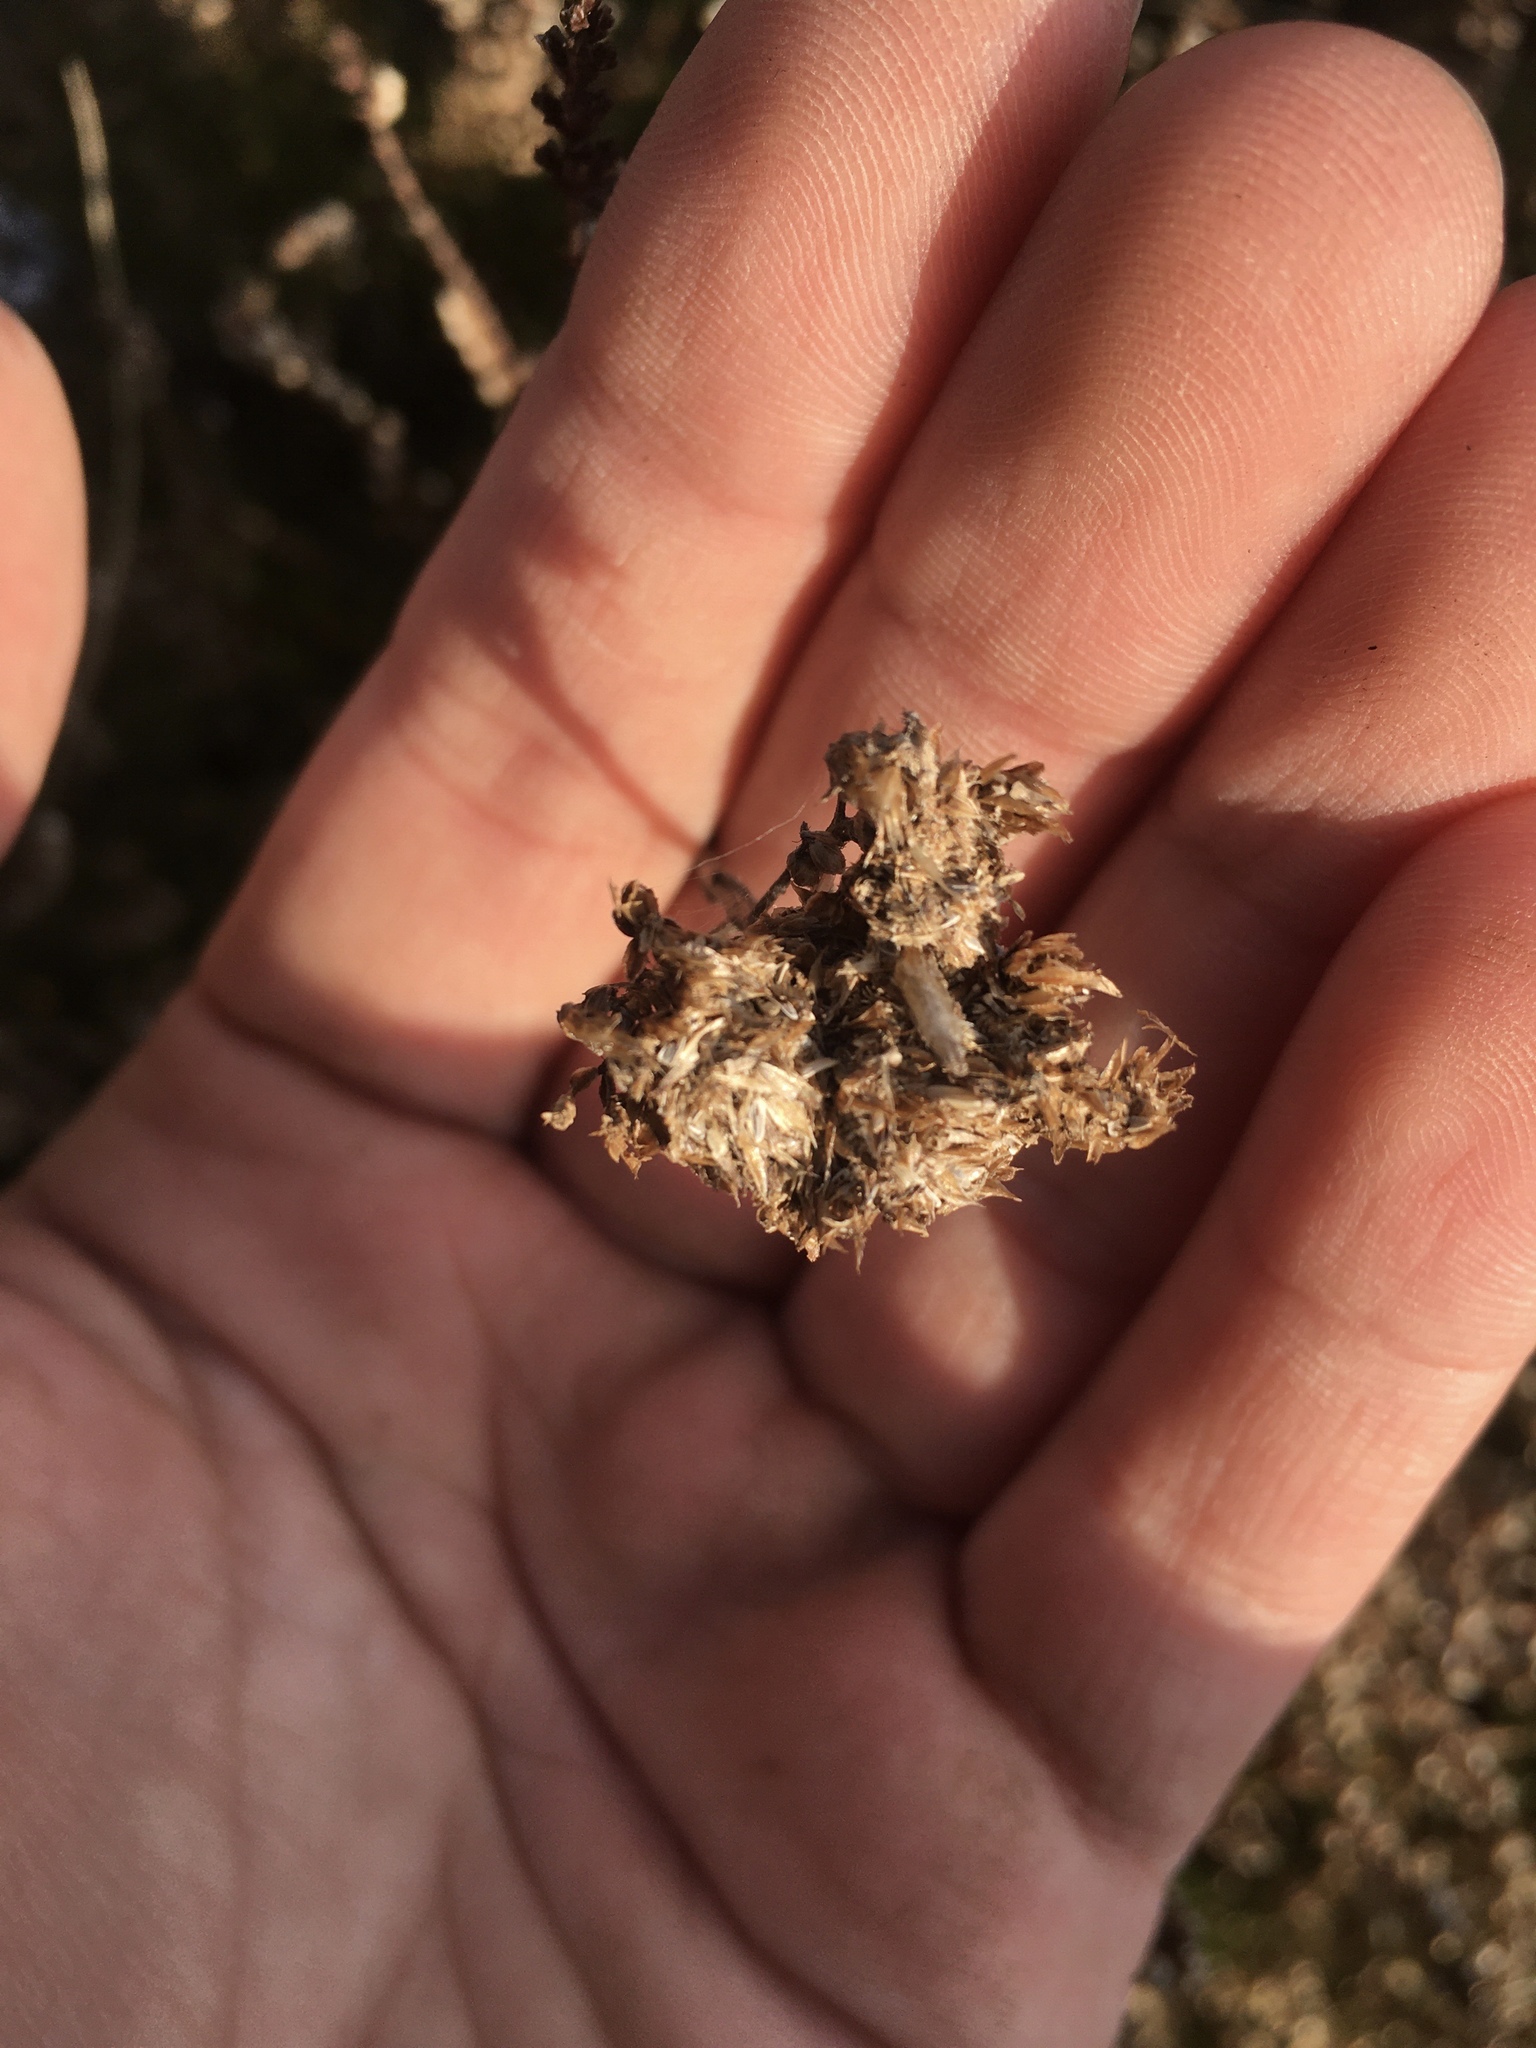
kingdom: Plantae
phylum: Tracheophyta
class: Magnoliopsida
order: Ericales
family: Ericaceae
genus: Calluna
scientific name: Calluna vulgaris
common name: Heather
